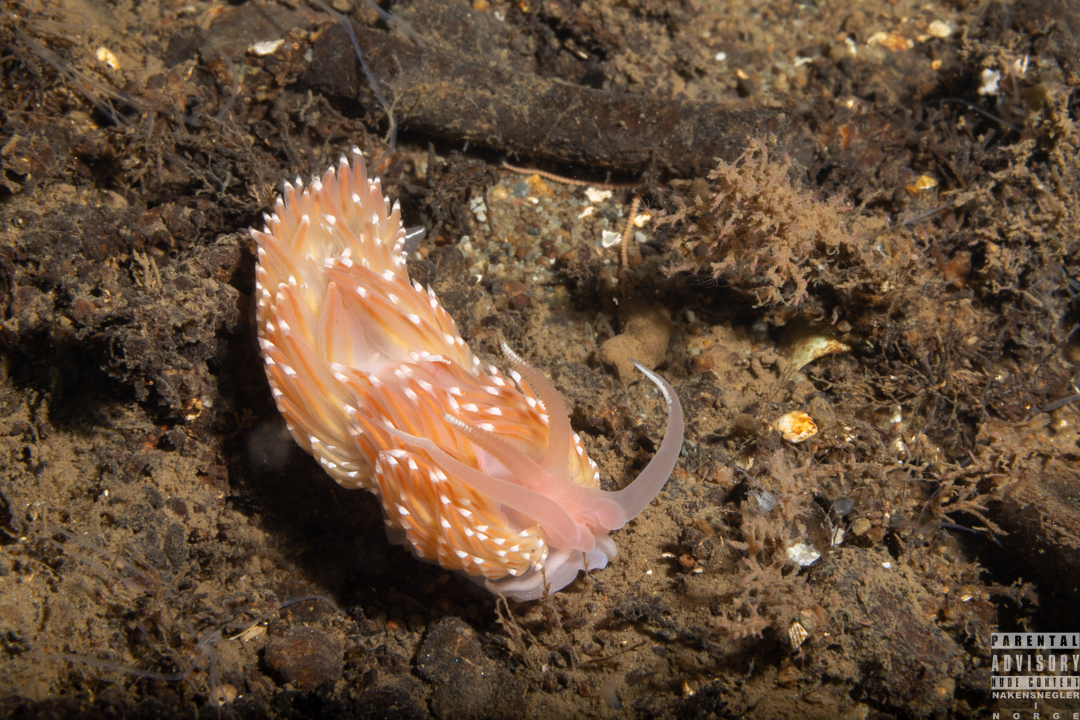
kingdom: Animalia
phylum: Mollusca
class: Gastropoda
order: Nudibranchia
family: Facelinidae
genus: Facelina
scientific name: Facelina bostoniensis
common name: Boston facelina
